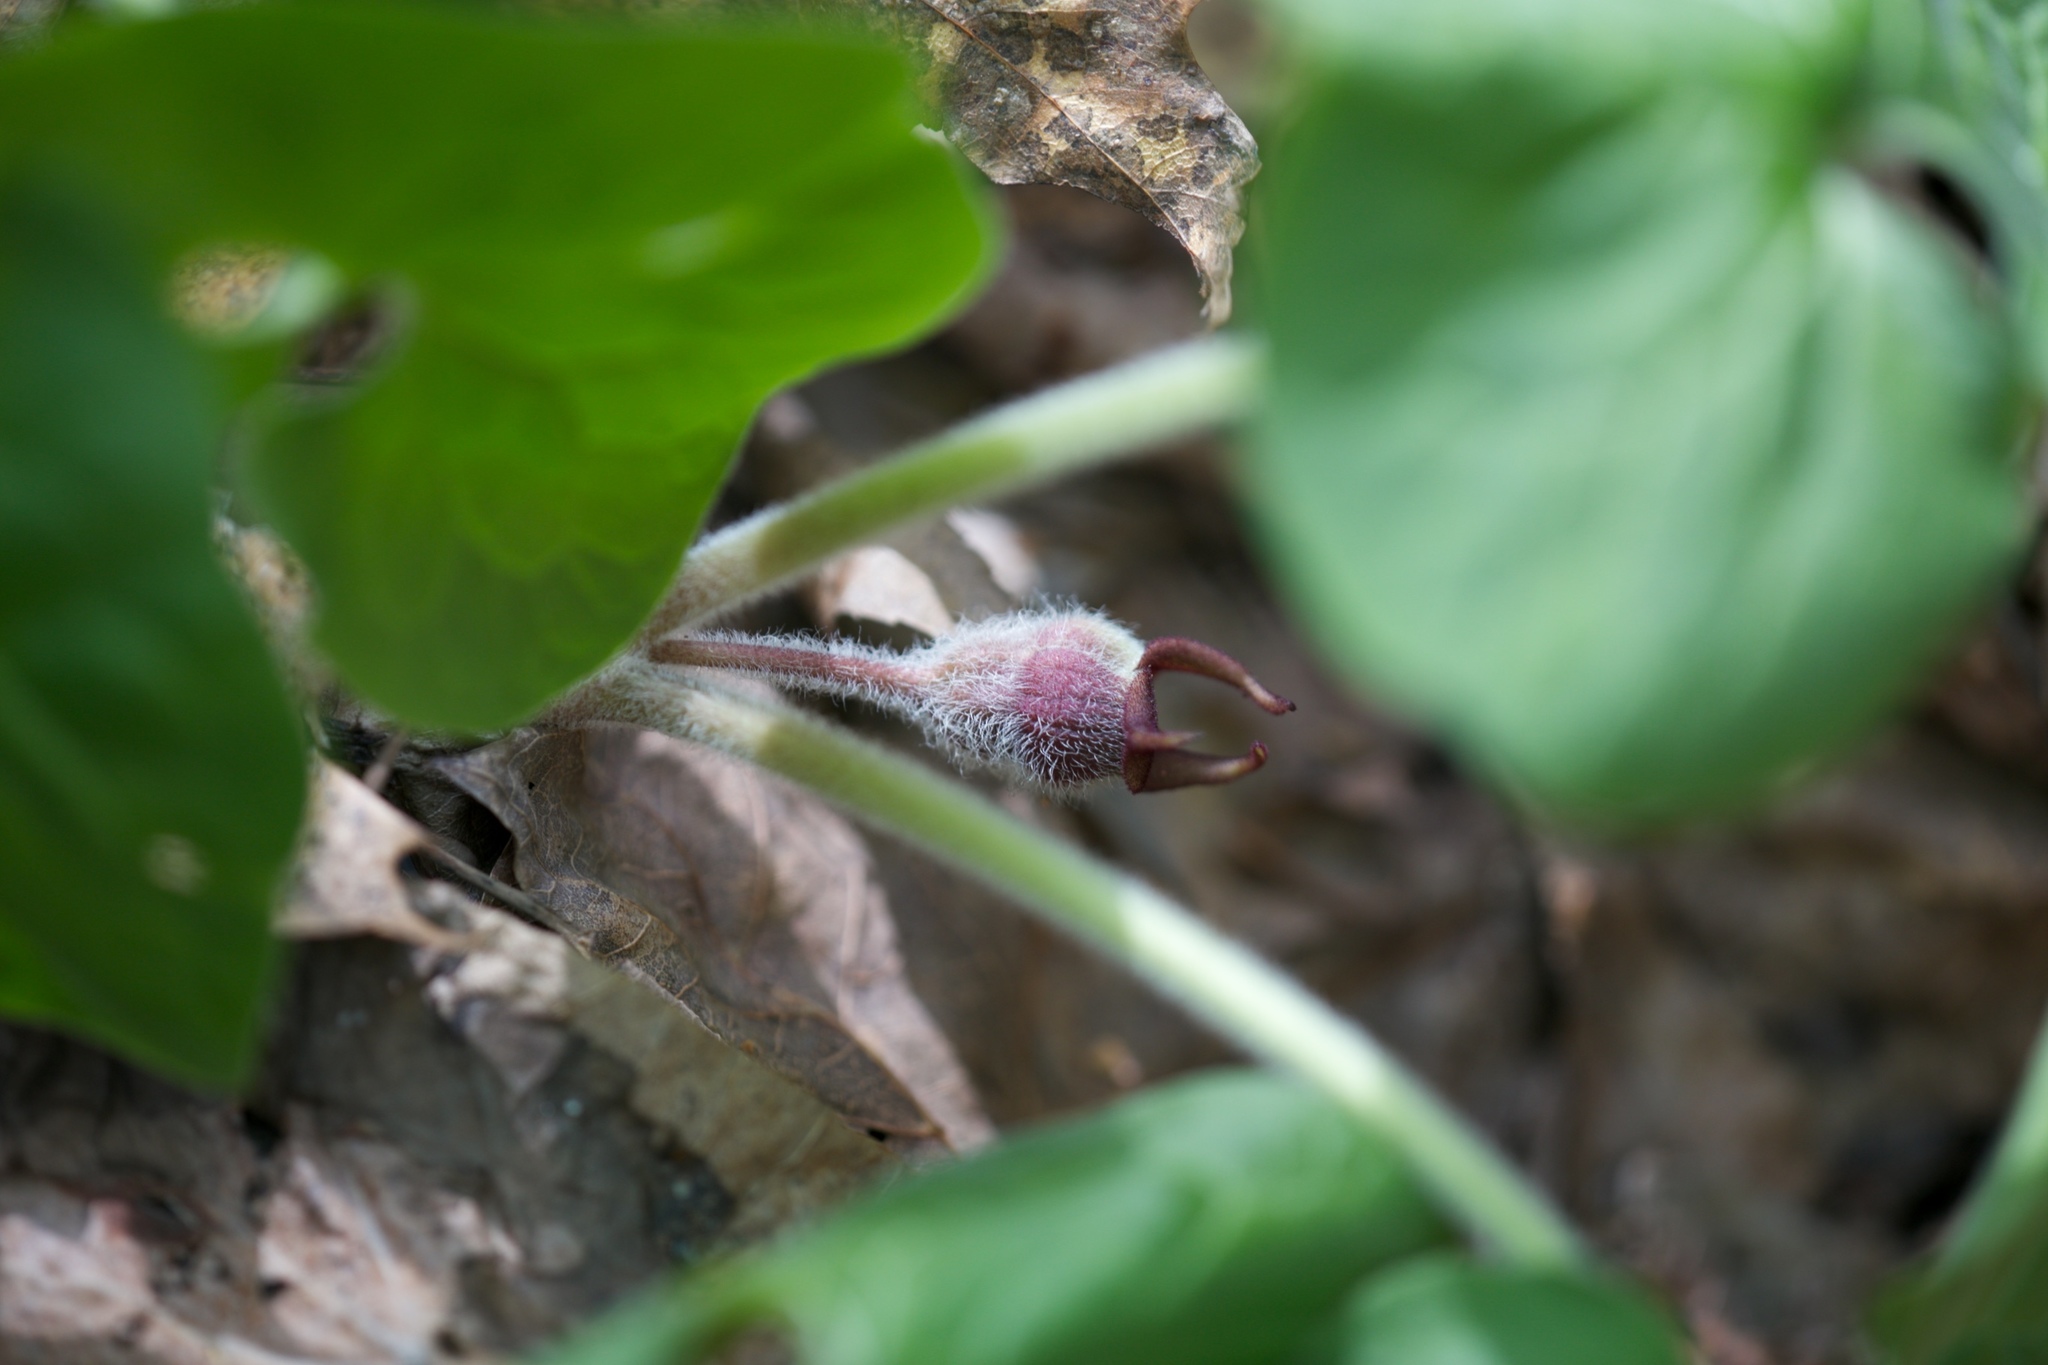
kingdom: Plantae
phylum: Tracheophyta
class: Magnoliopsida
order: Piperales
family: Aristolochiaceae
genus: Asarum
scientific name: Asarum canadense
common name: Wild ginger
